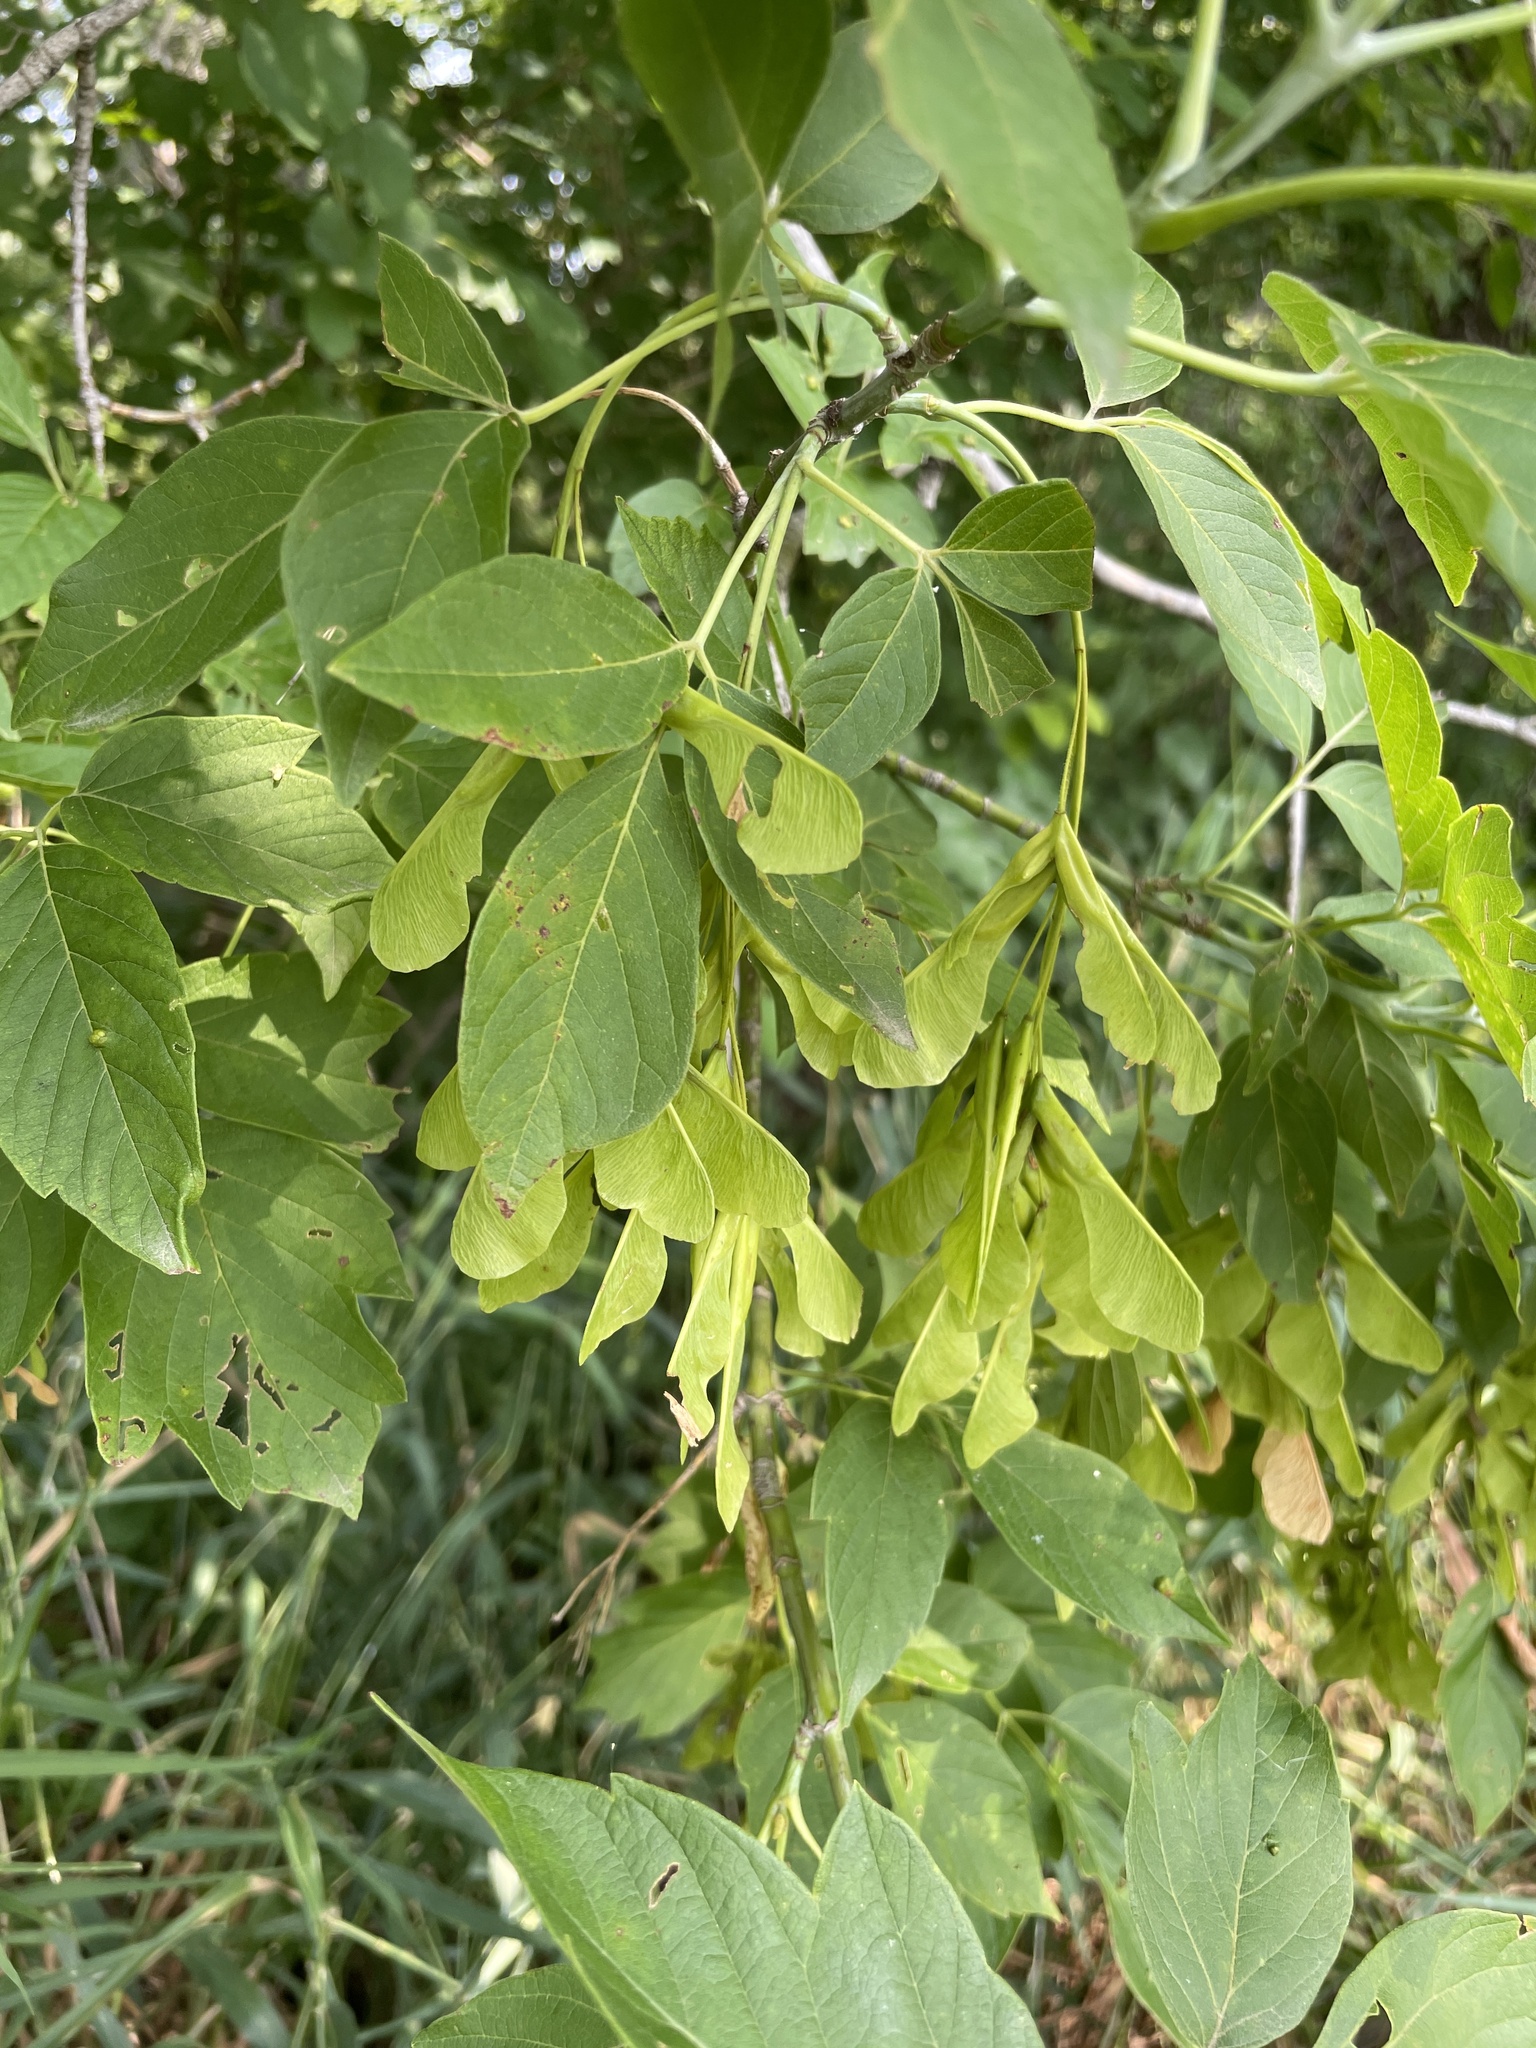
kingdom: Plantae
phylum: Tracheophyta
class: Magnoliopsida
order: Sapindales
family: Sapindaceae
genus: Acer
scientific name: Acer negundo
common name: Ashleaf maple
